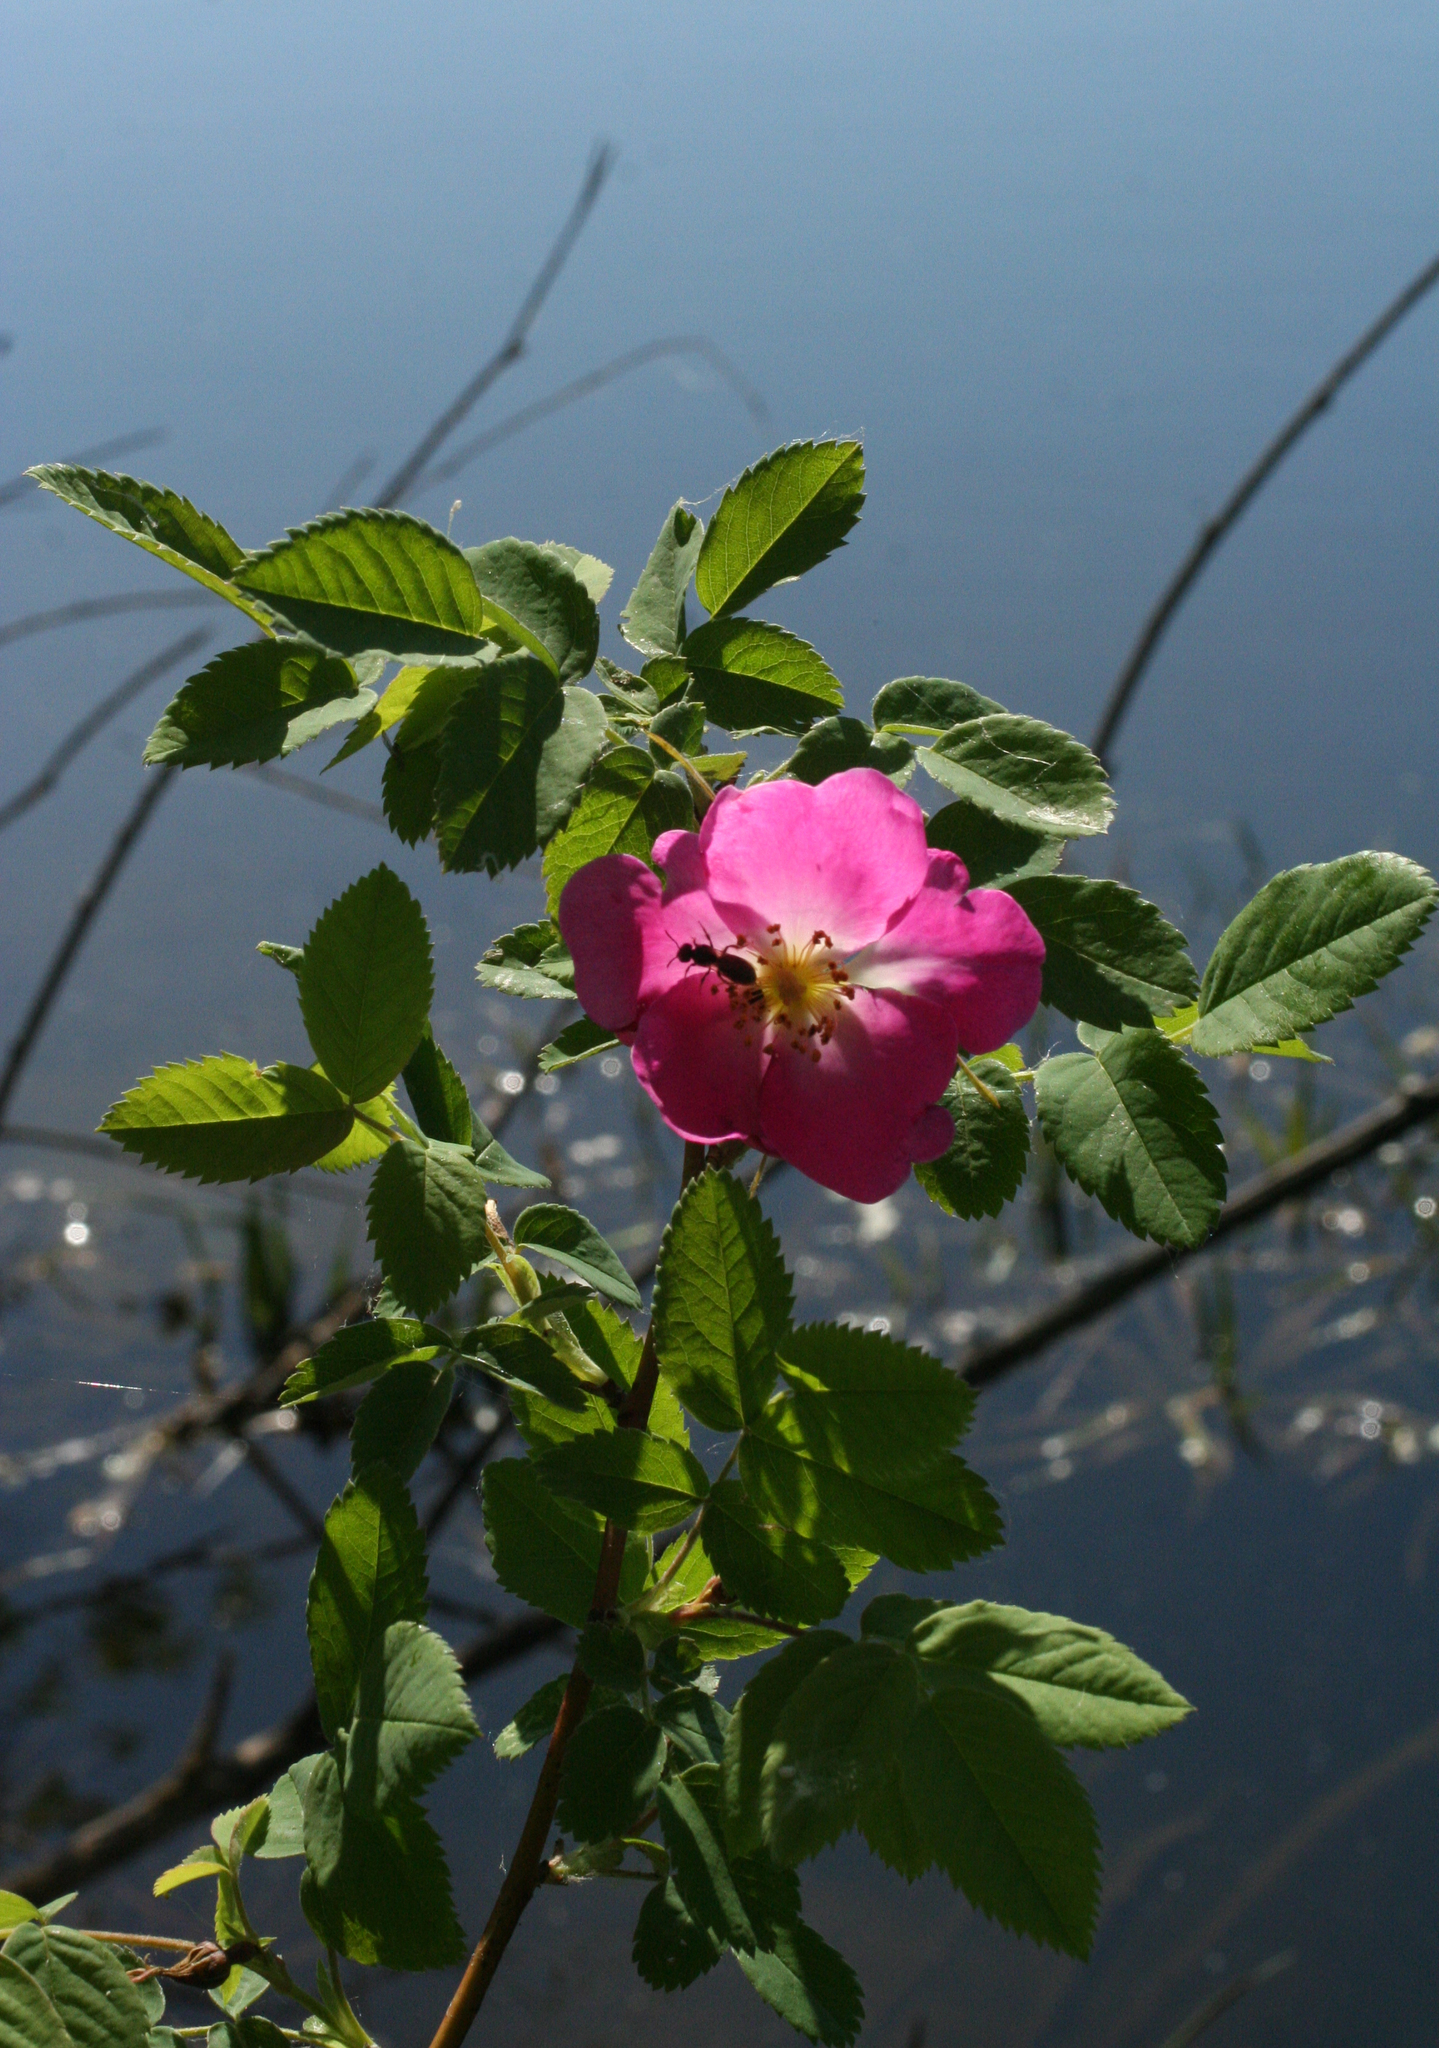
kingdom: Plantae
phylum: Tracheophyta
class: Magnoliopsida
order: Rosales
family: Rosaceae
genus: Rosa
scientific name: Rosa acicularis
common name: Prickly rose
